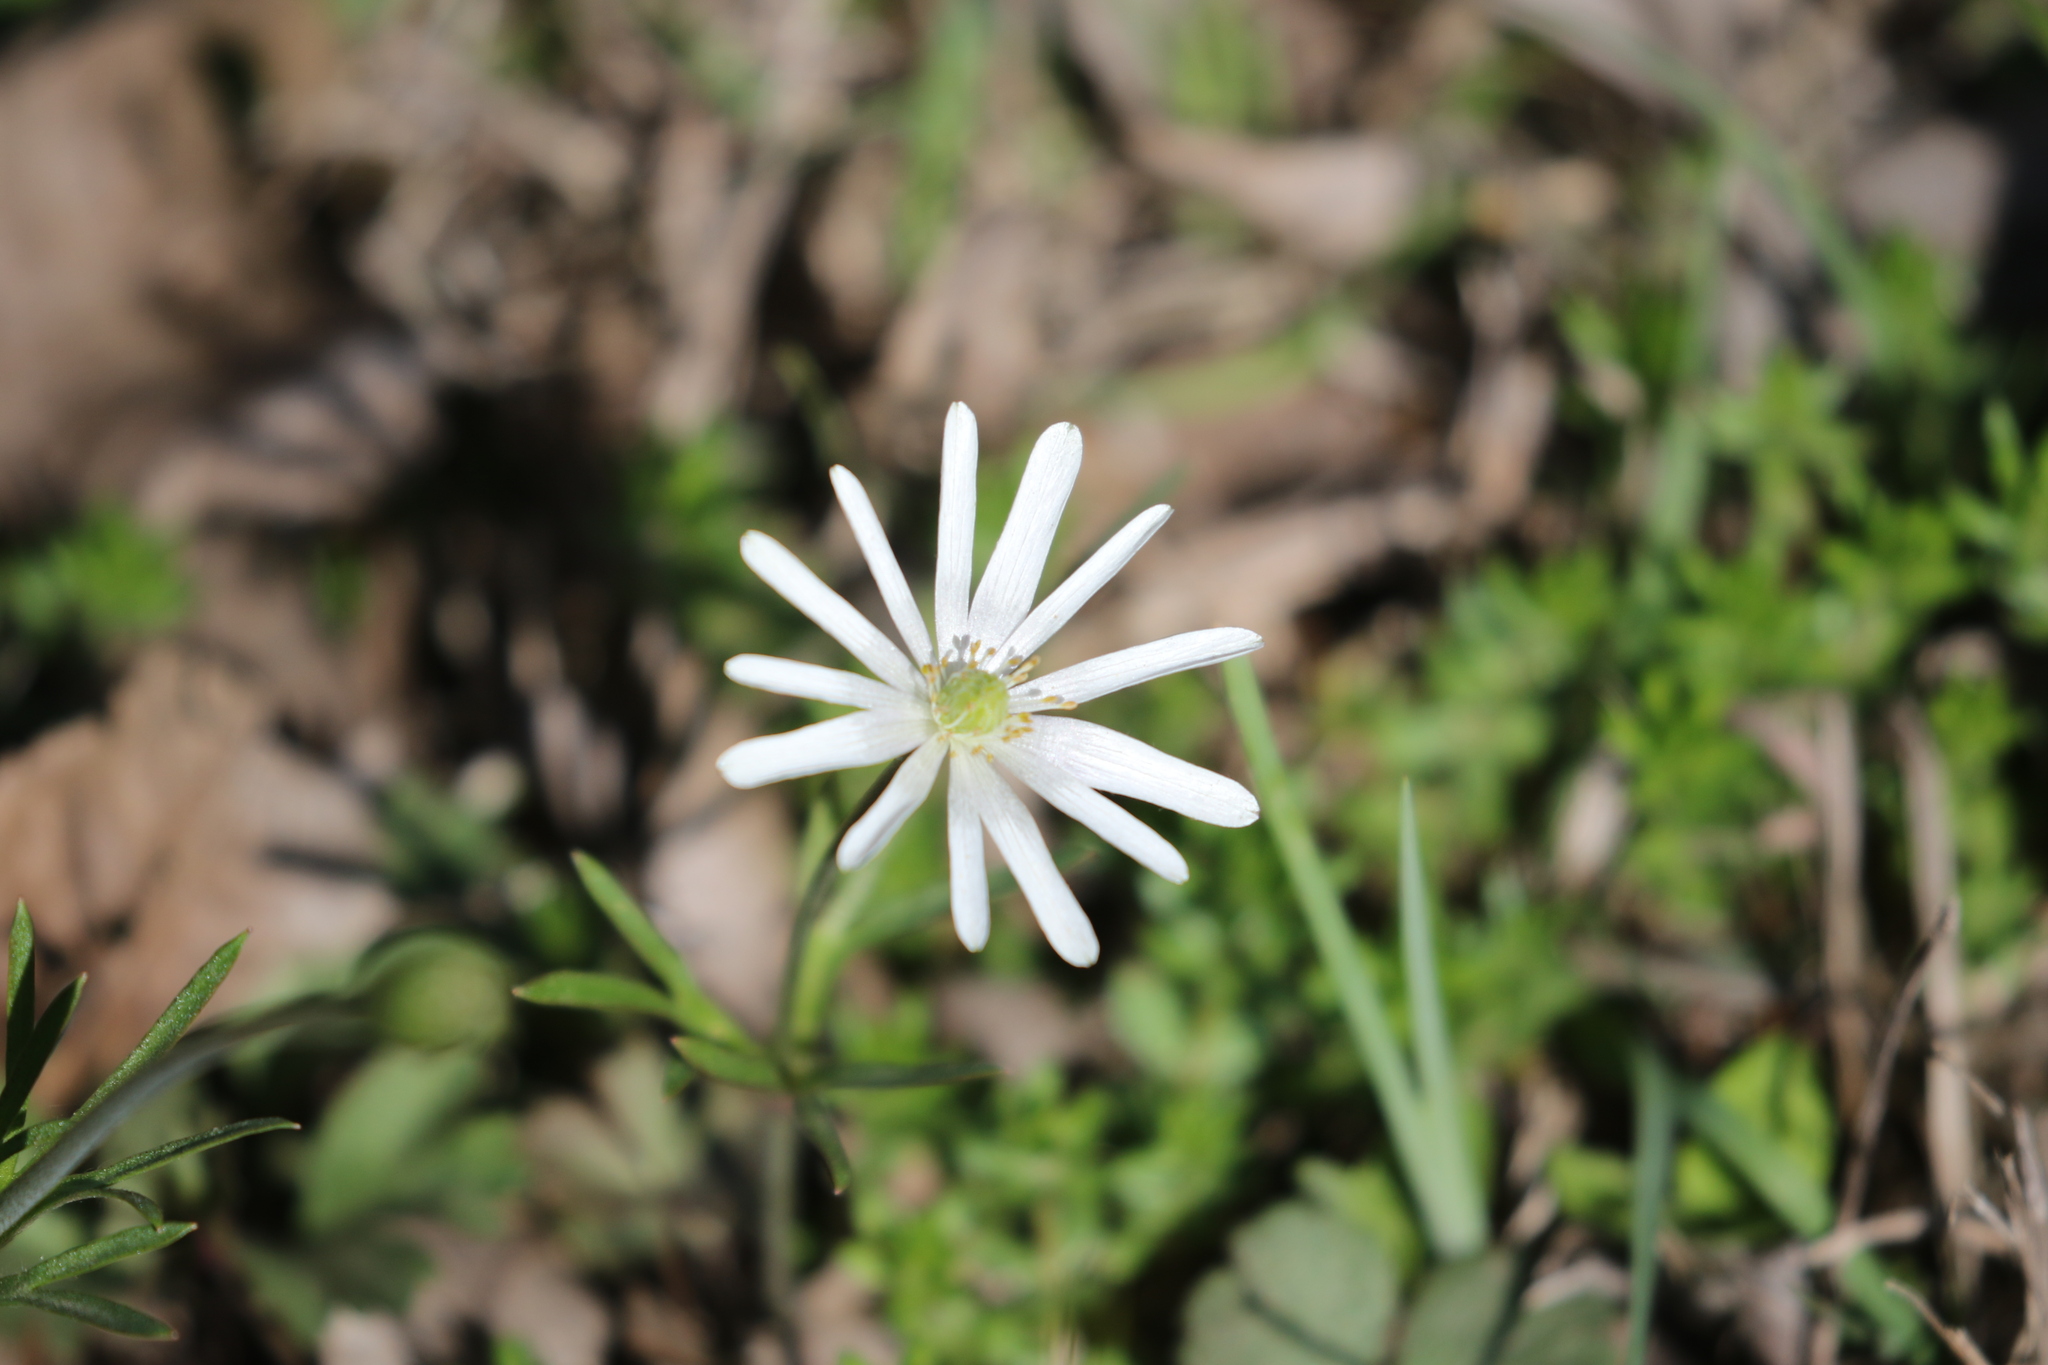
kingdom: Plantae
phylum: Tracheophyta
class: Magnoliopsida
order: Ranunculales
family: Ranunculaceae
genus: Anemone
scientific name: Anemone berlandieri
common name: Ten-petal anemone
